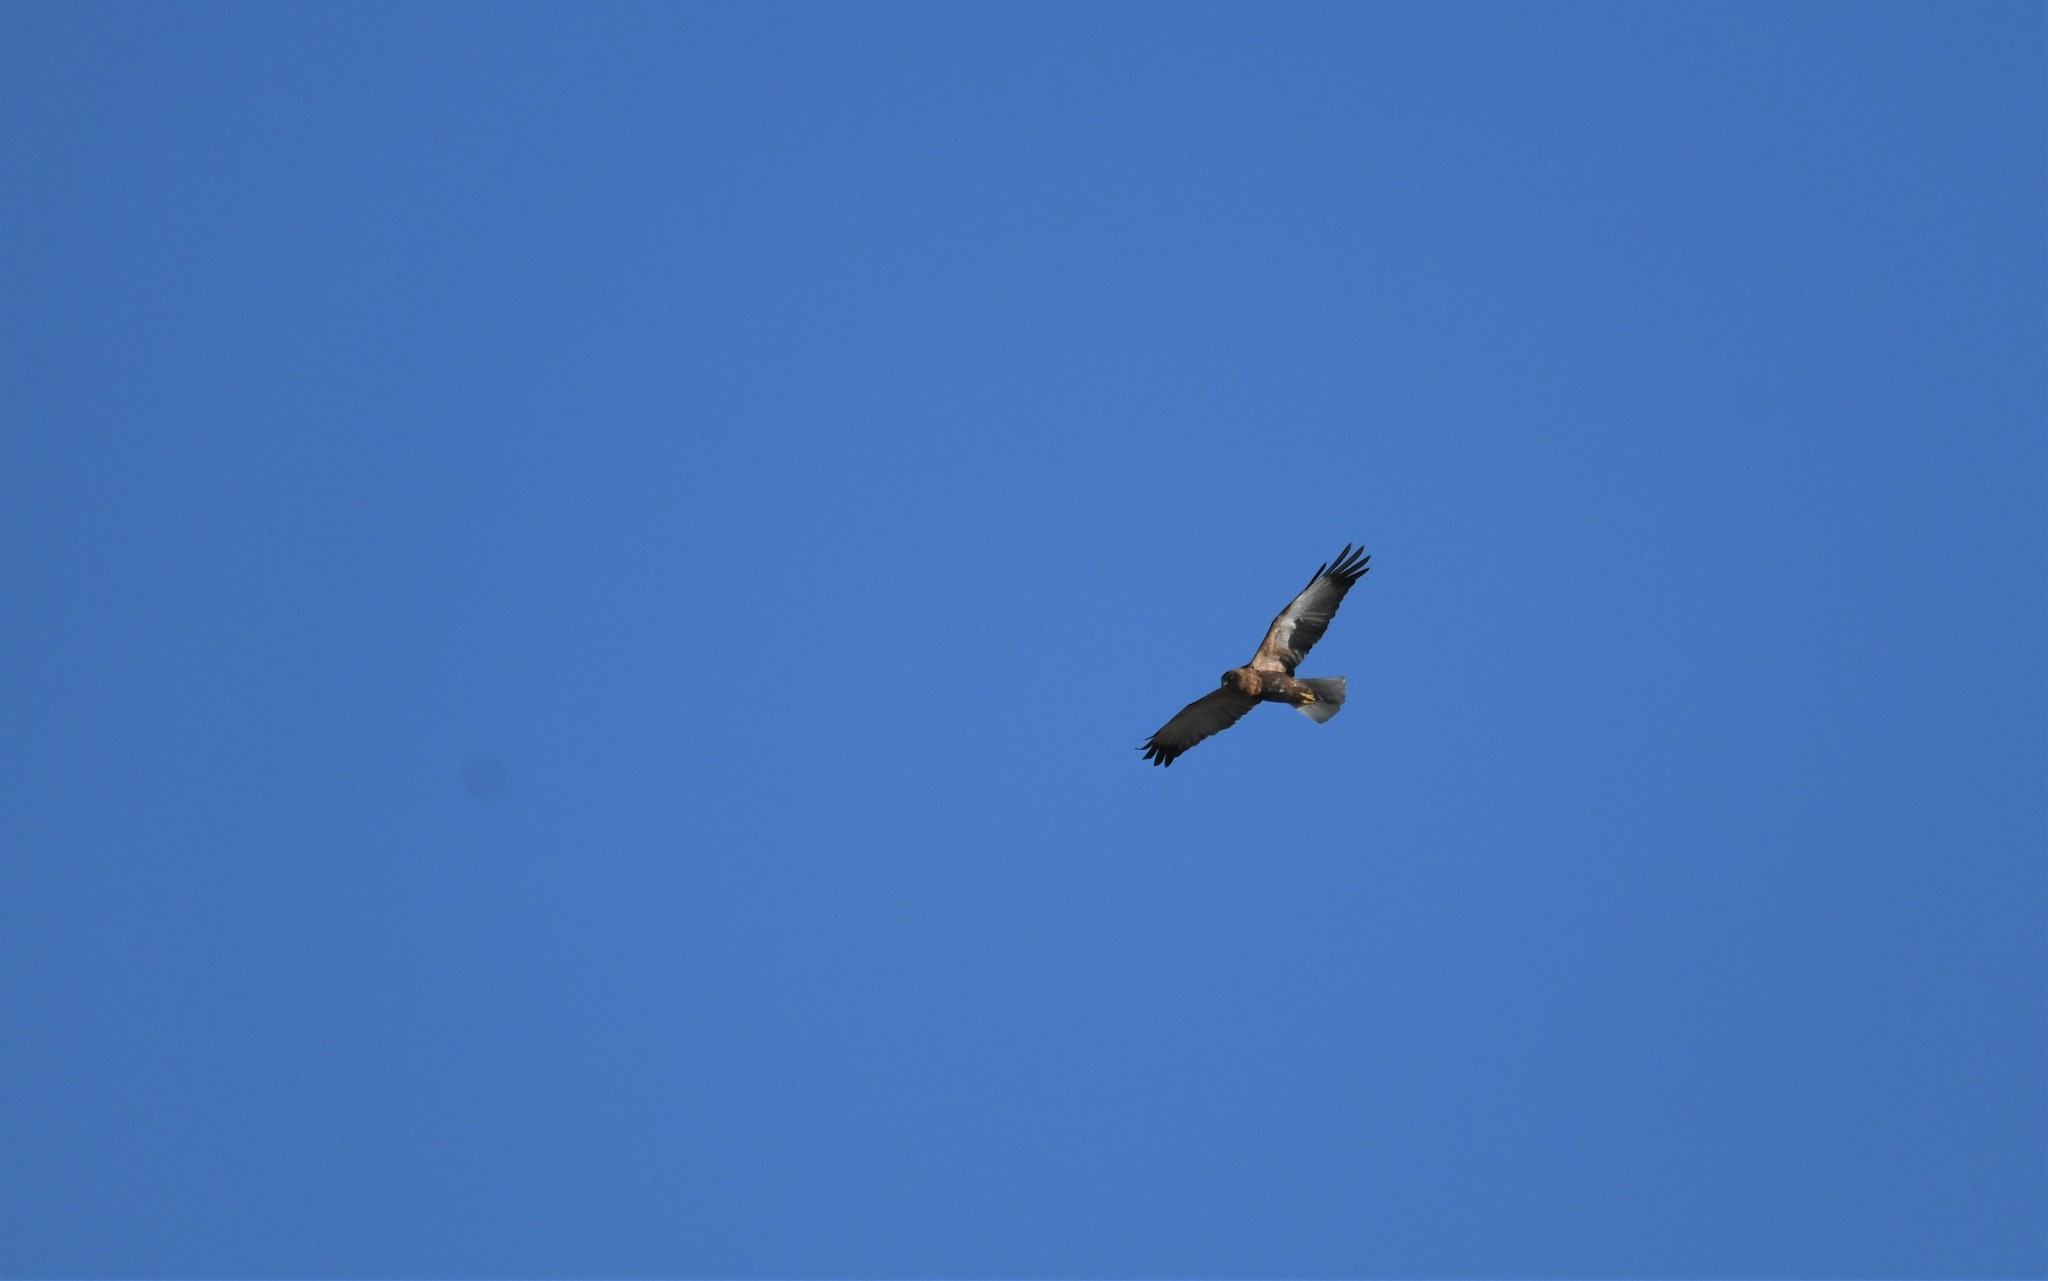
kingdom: Animalia
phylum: Chordata
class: Aves
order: Accipitriformes
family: Accipitridae
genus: Circus
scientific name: Circus aeruginosus
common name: Western marsh harrier
